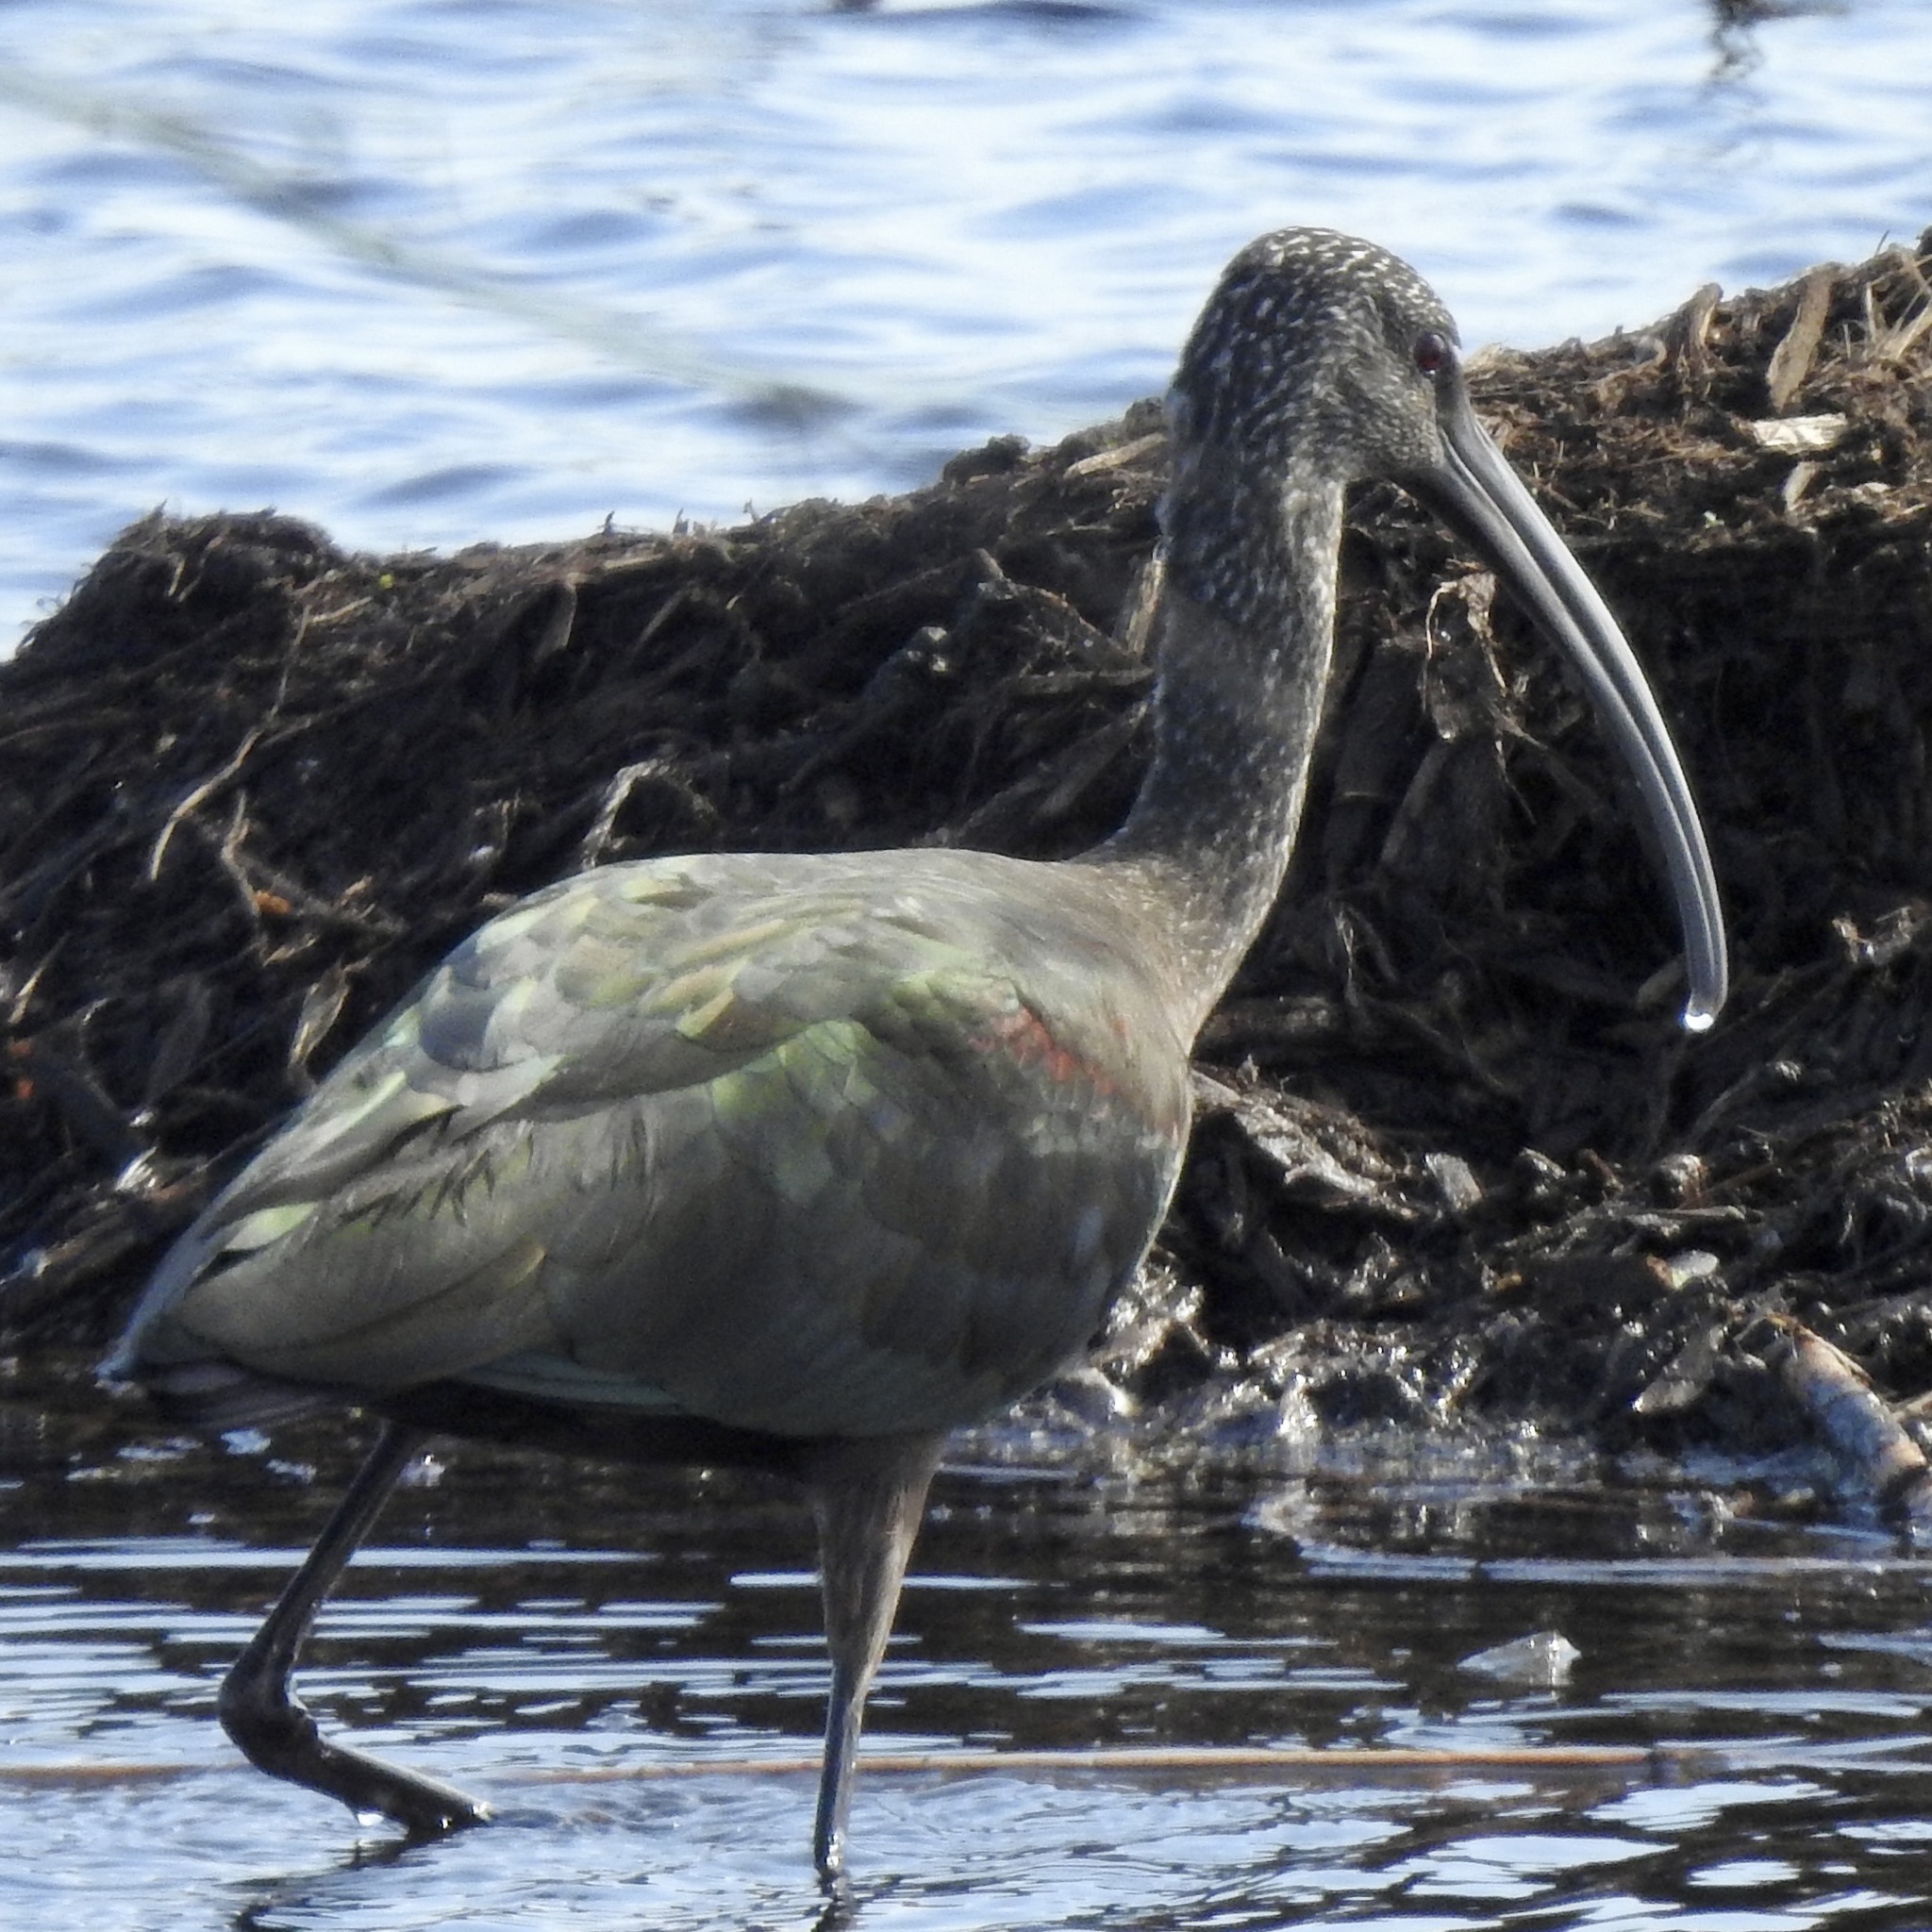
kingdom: Animalia
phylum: Chordata
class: Aves
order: Pelecaniformes
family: Threskiornithidae
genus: Plegadis
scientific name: Plegadis chihi
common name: White-faced ibis
